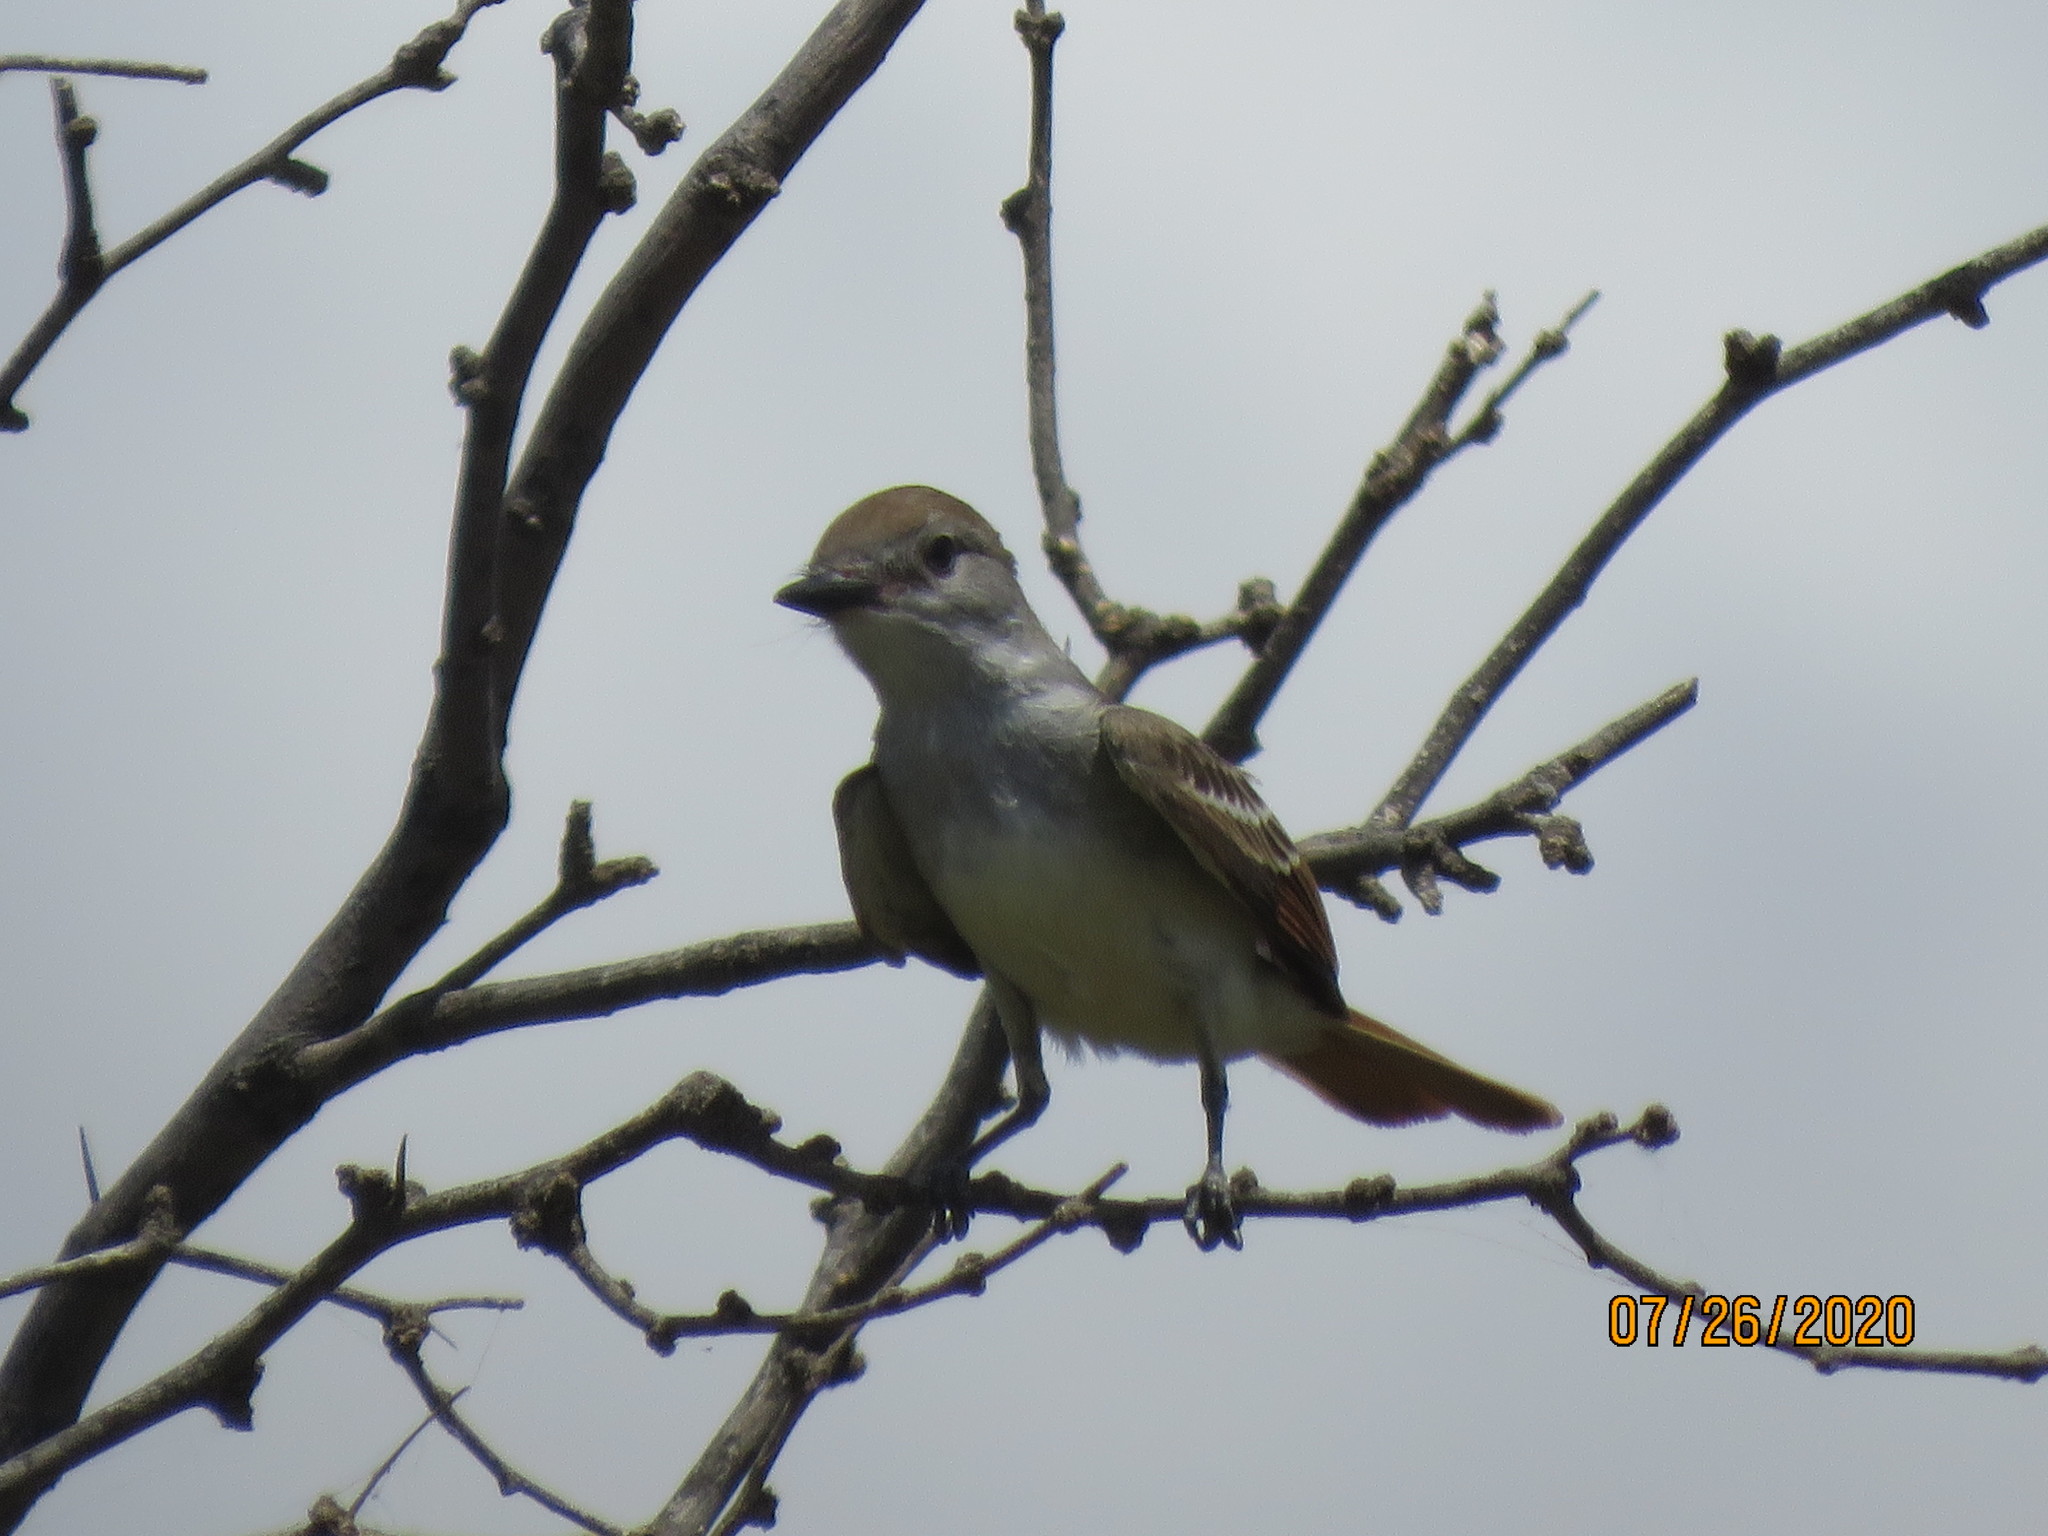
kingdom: Animalia
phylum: Chordata
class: Aves
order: Passeriformes
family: Tyrannidae
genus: Myiarchus
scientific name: Myiarchus cinerascens
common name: Ash-throated flycatcher
